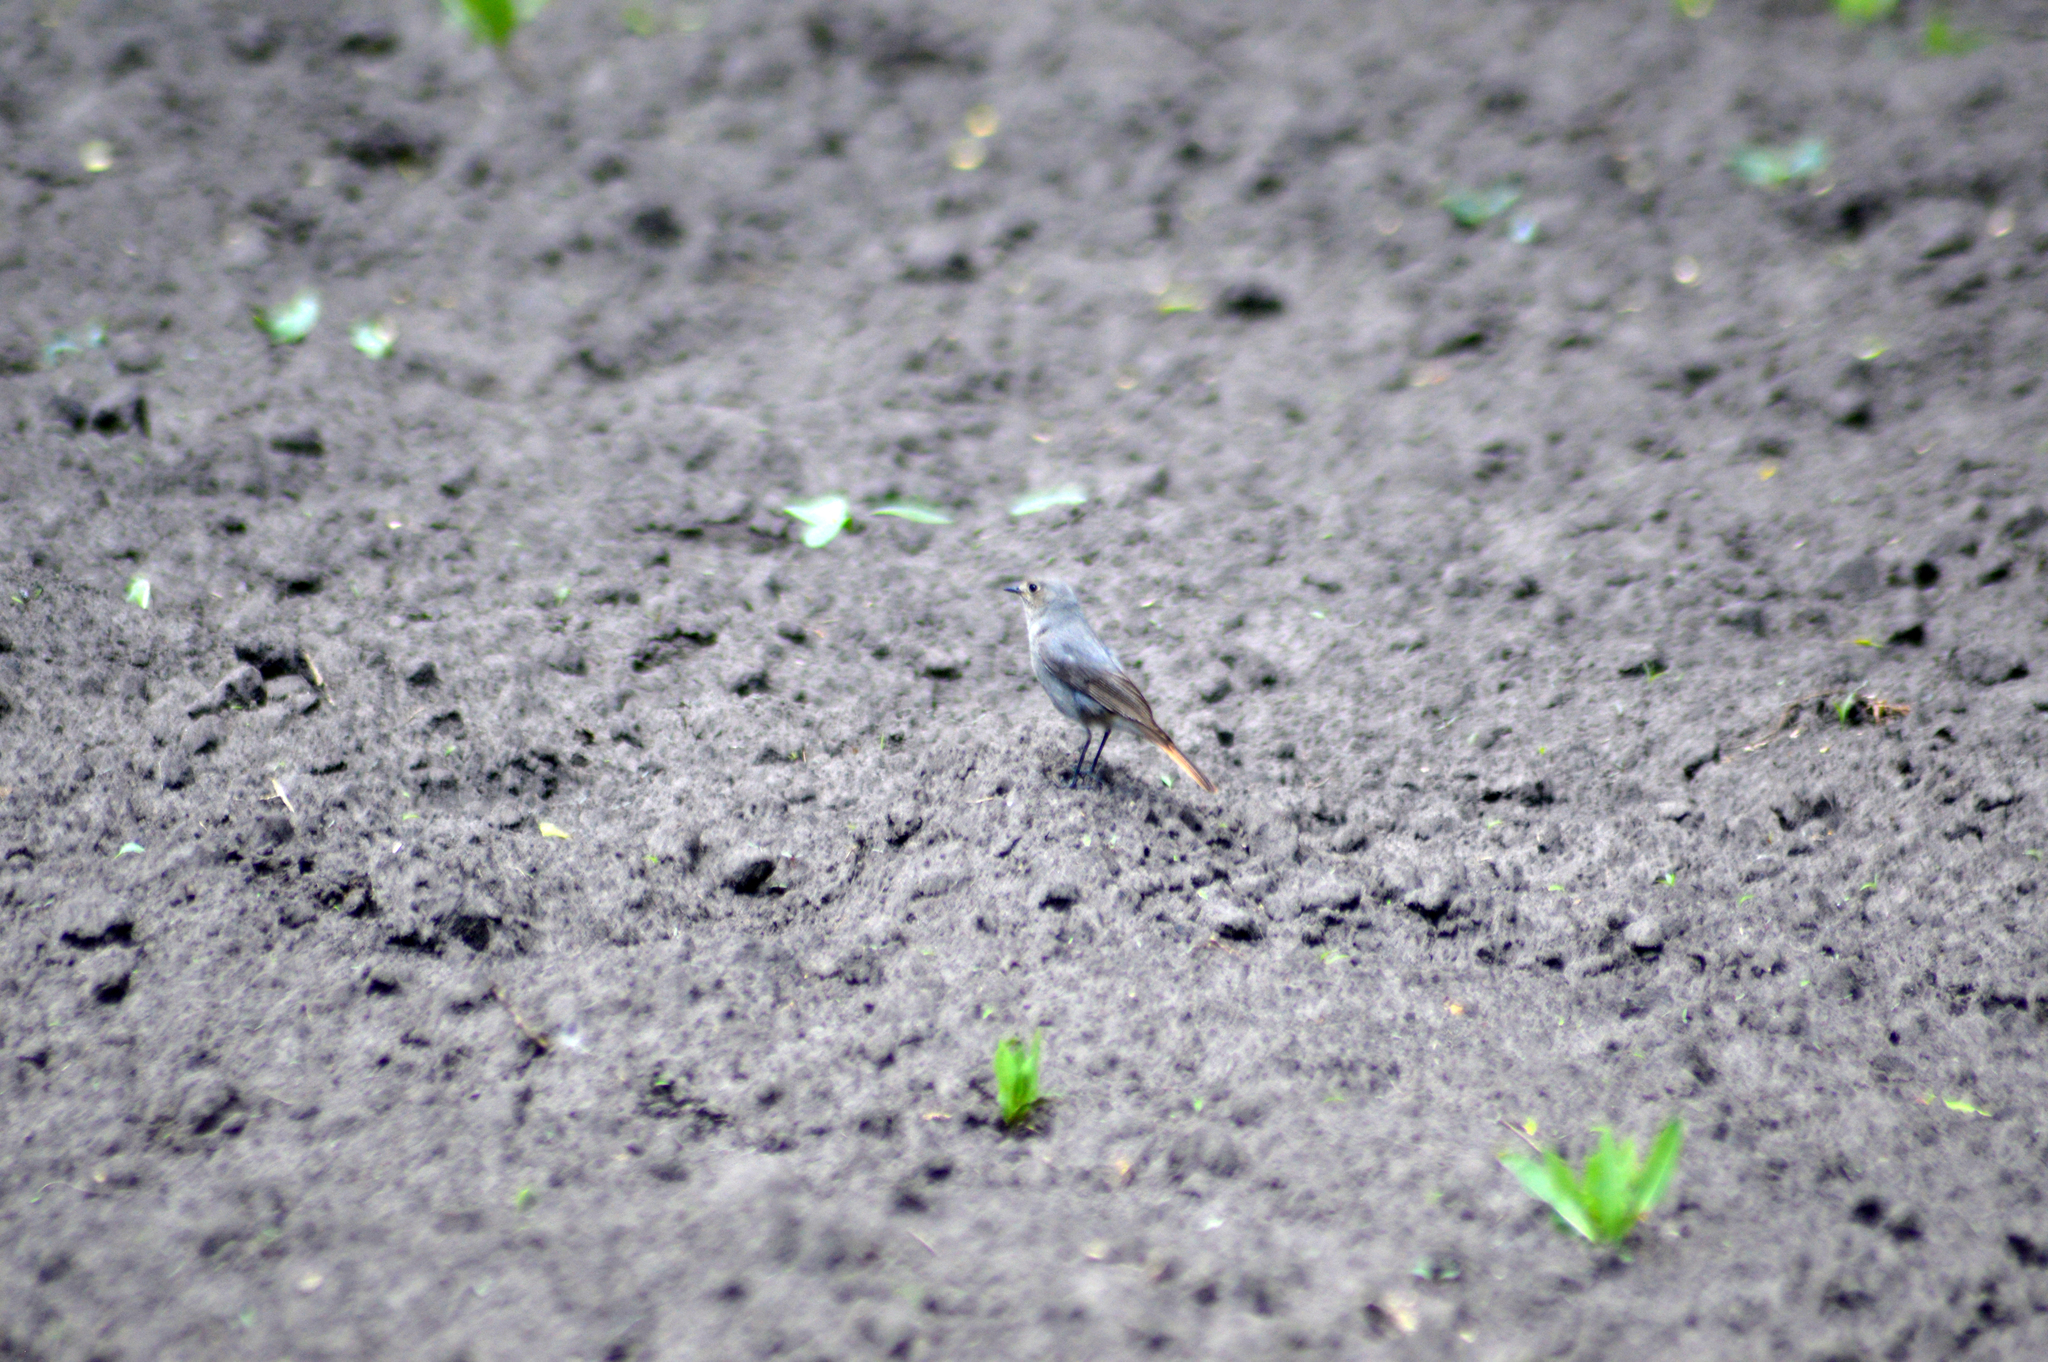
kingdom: Animalia
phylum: Chordata
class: Aves
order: Passeriformes
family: Muscicapidae
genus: Phoenicurus
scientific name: Phoenicurus ochruros
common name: Black redstart
